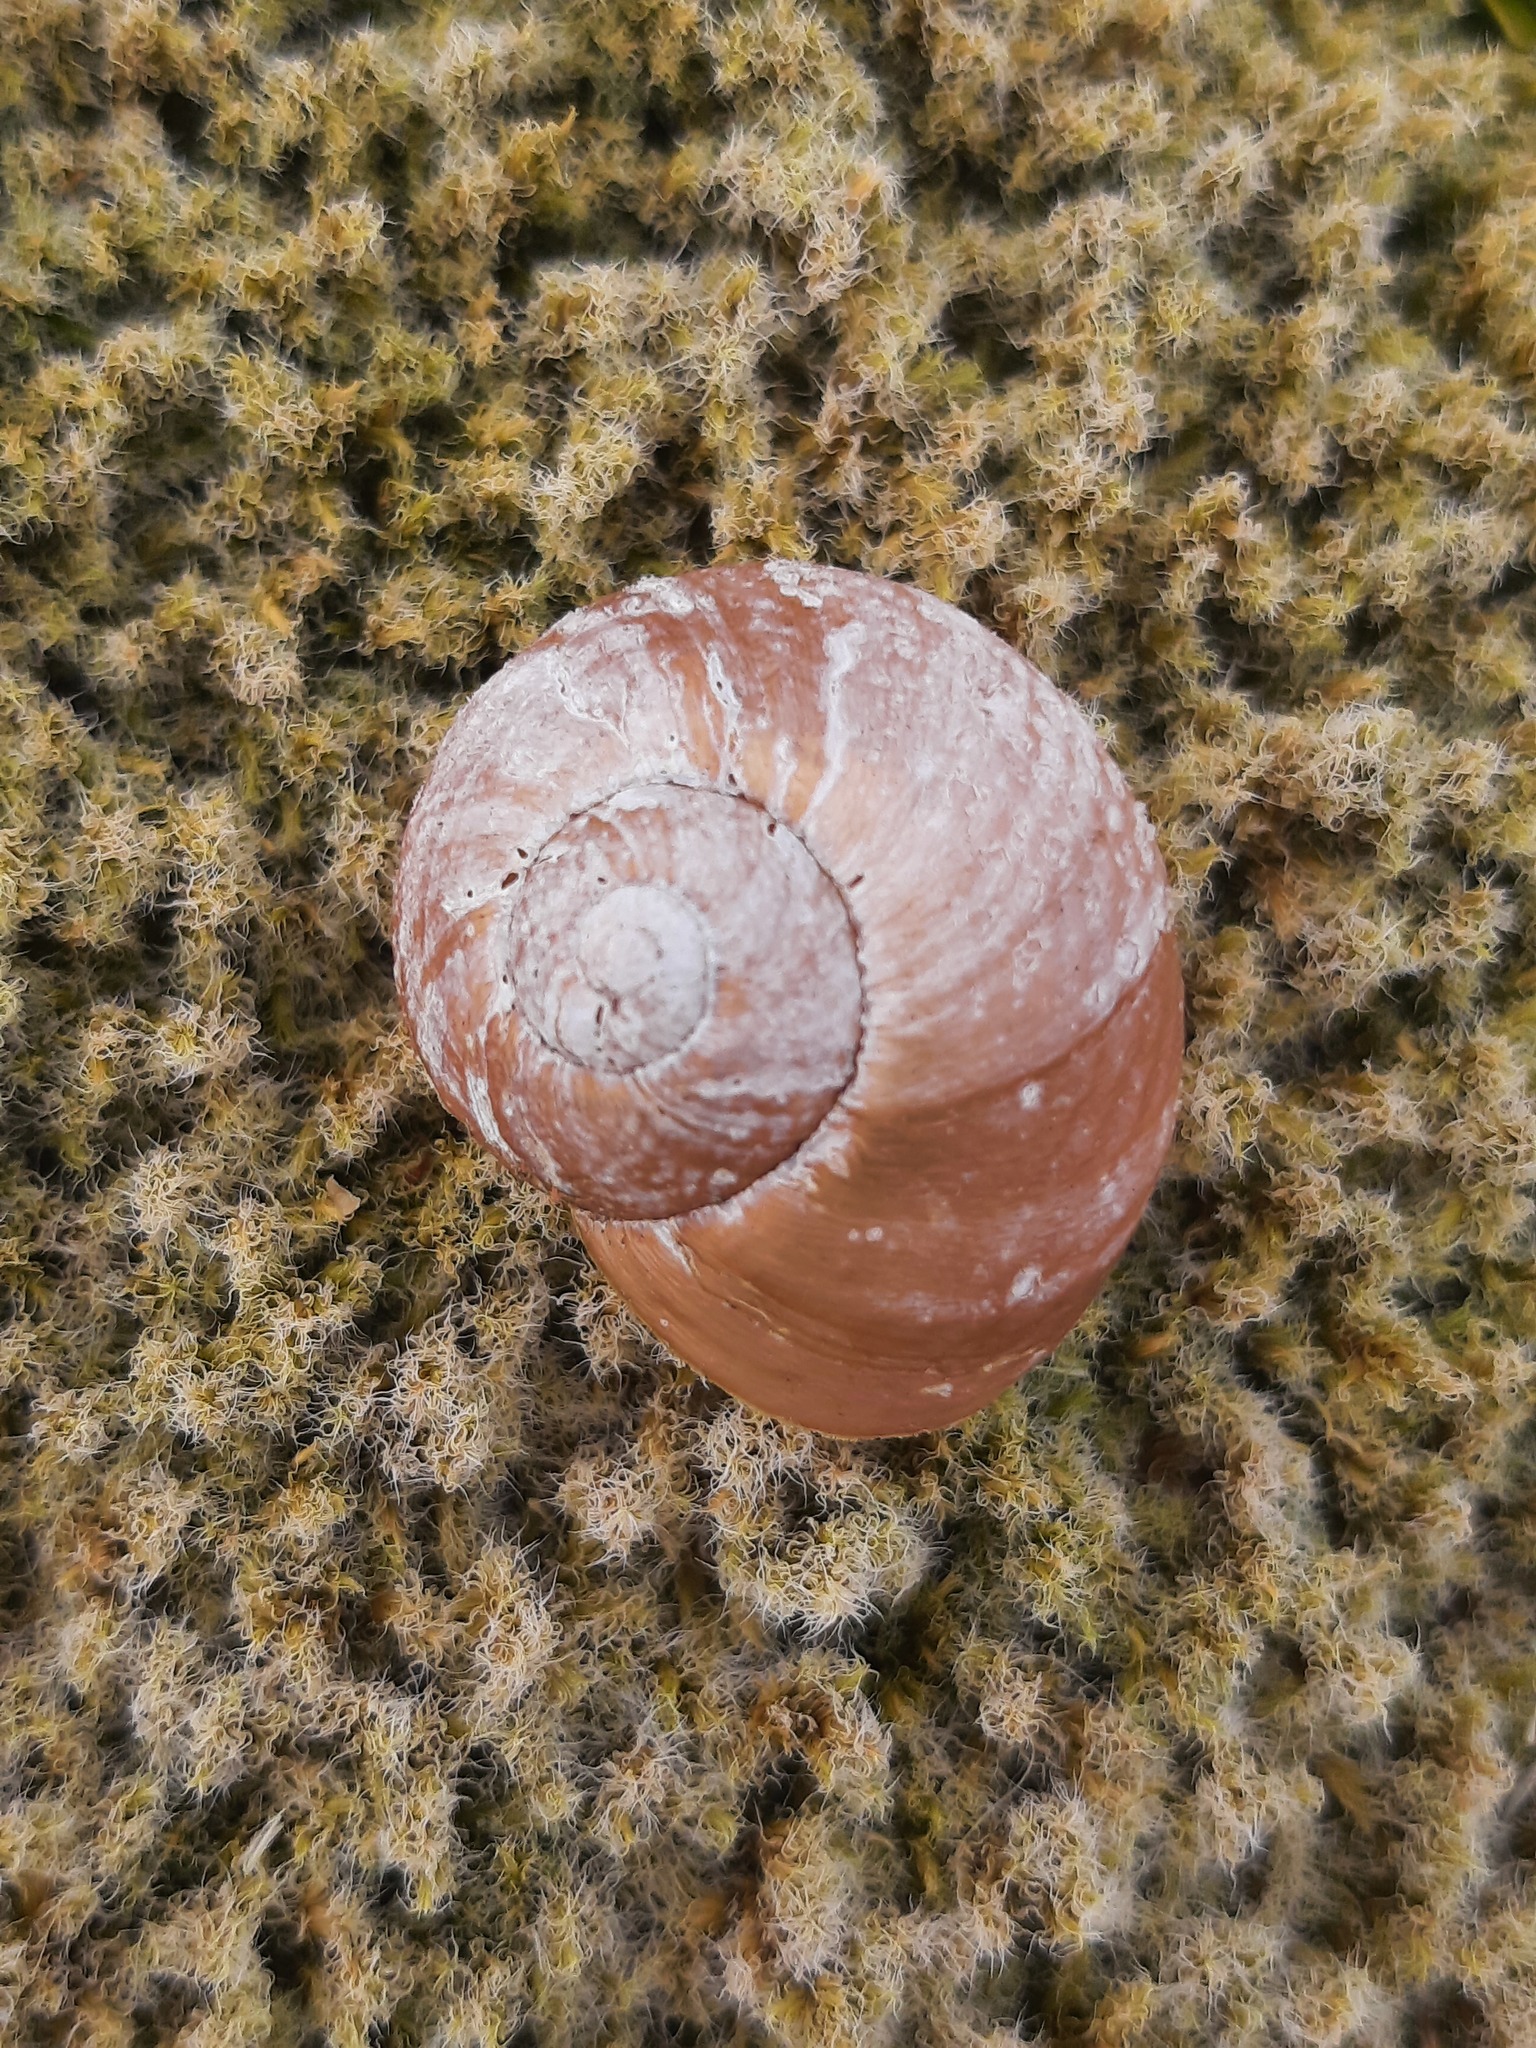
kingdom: Animalia
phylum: Mollusca
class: Gastropoda
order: Stylommatophora
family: Rhytididae
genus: Rhytida
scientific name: Rhytida greenwoodi
